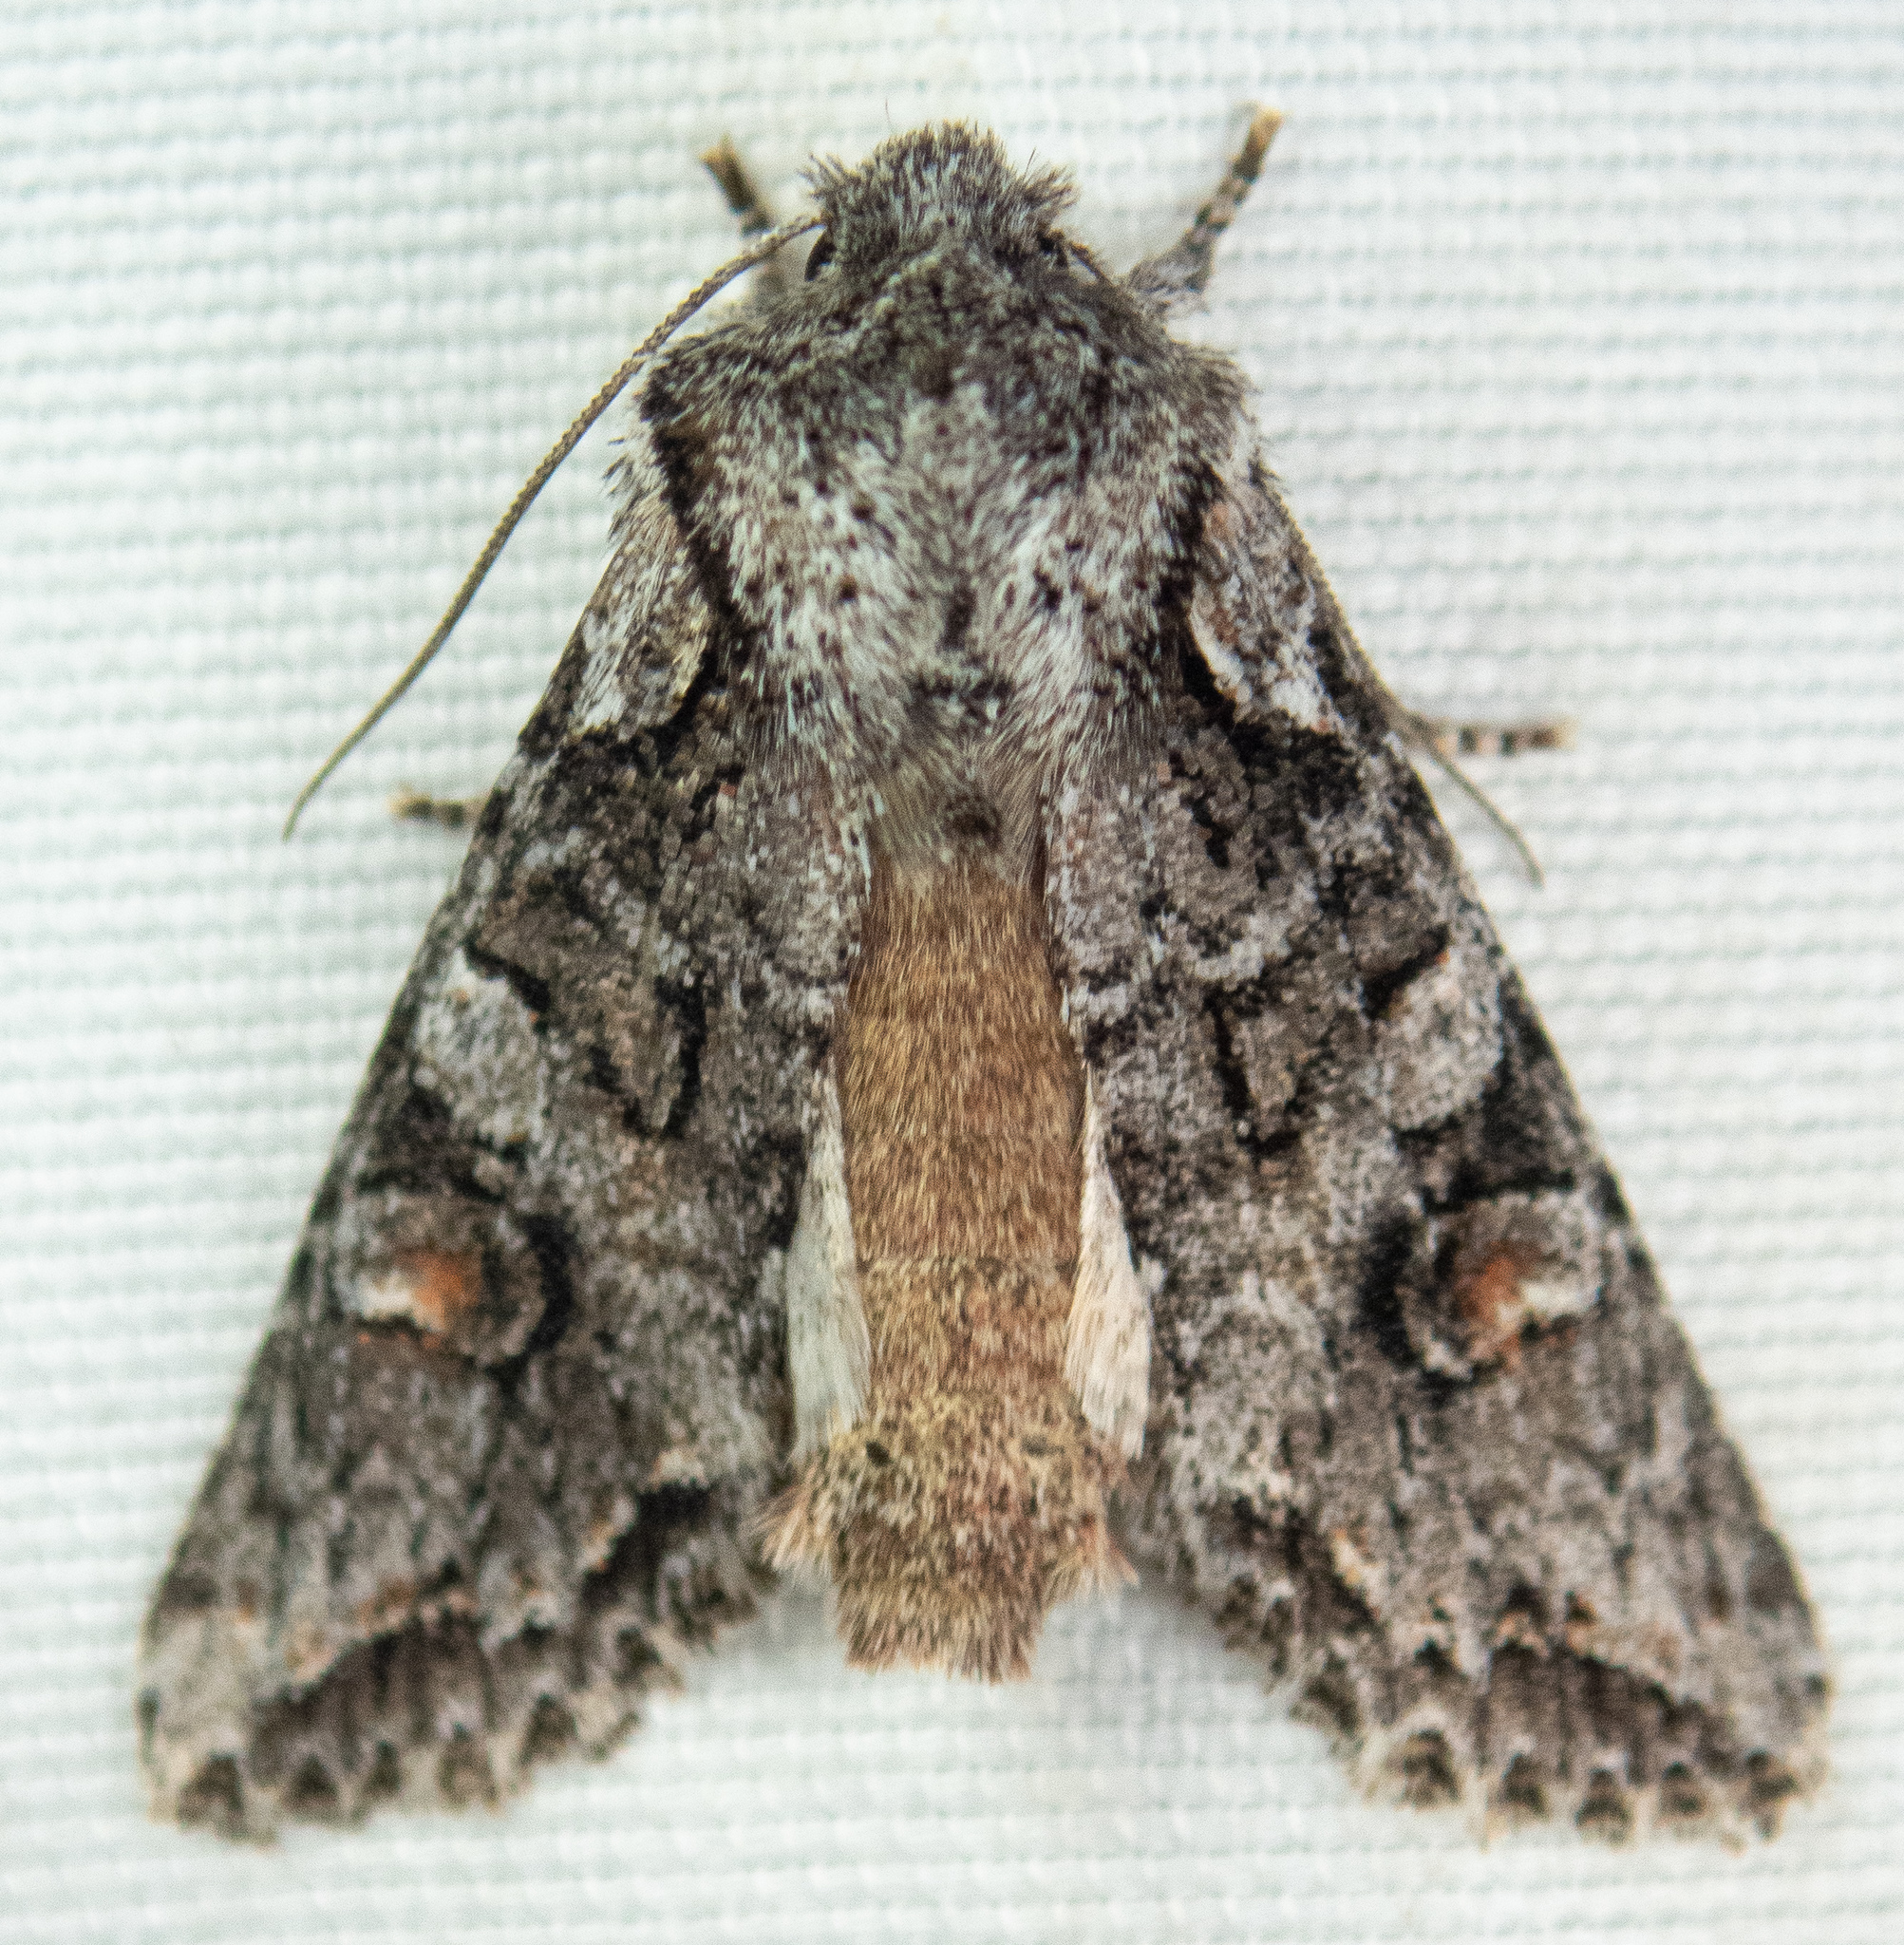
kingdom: Animalia
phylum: Arthropoda
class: Insecta
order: Lepidoptera
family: Noctuidae
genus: Egira
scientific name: Egira hiemalis
